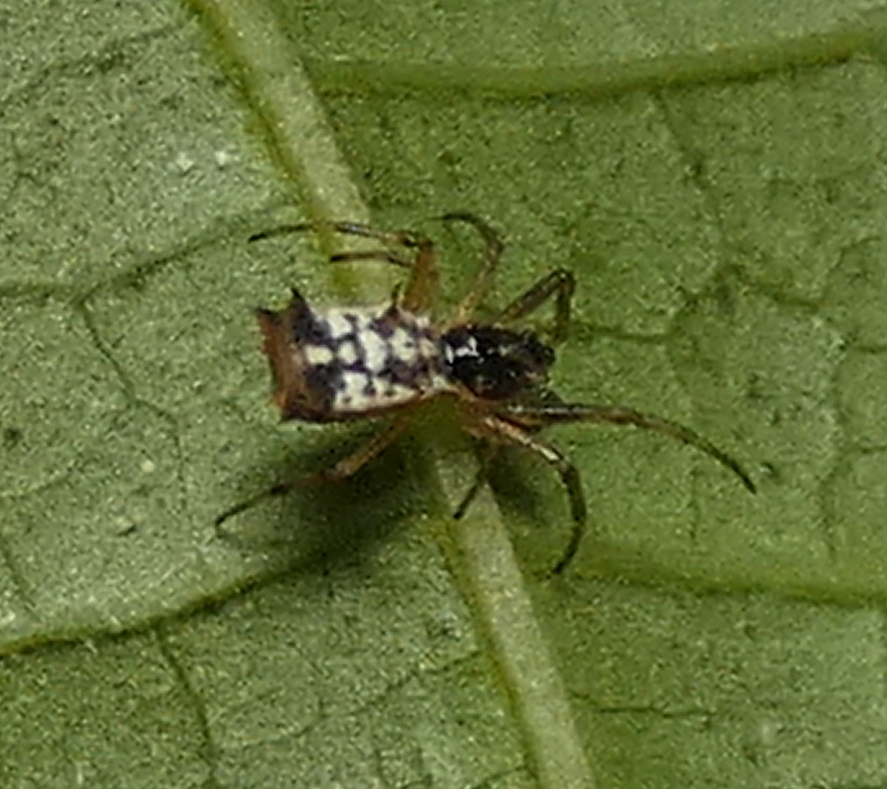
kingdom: Animalia
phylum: Arthropoda
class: Arachnida
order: Araneae
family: Araneidae
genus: Micrathena
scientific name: Micrathena picta
